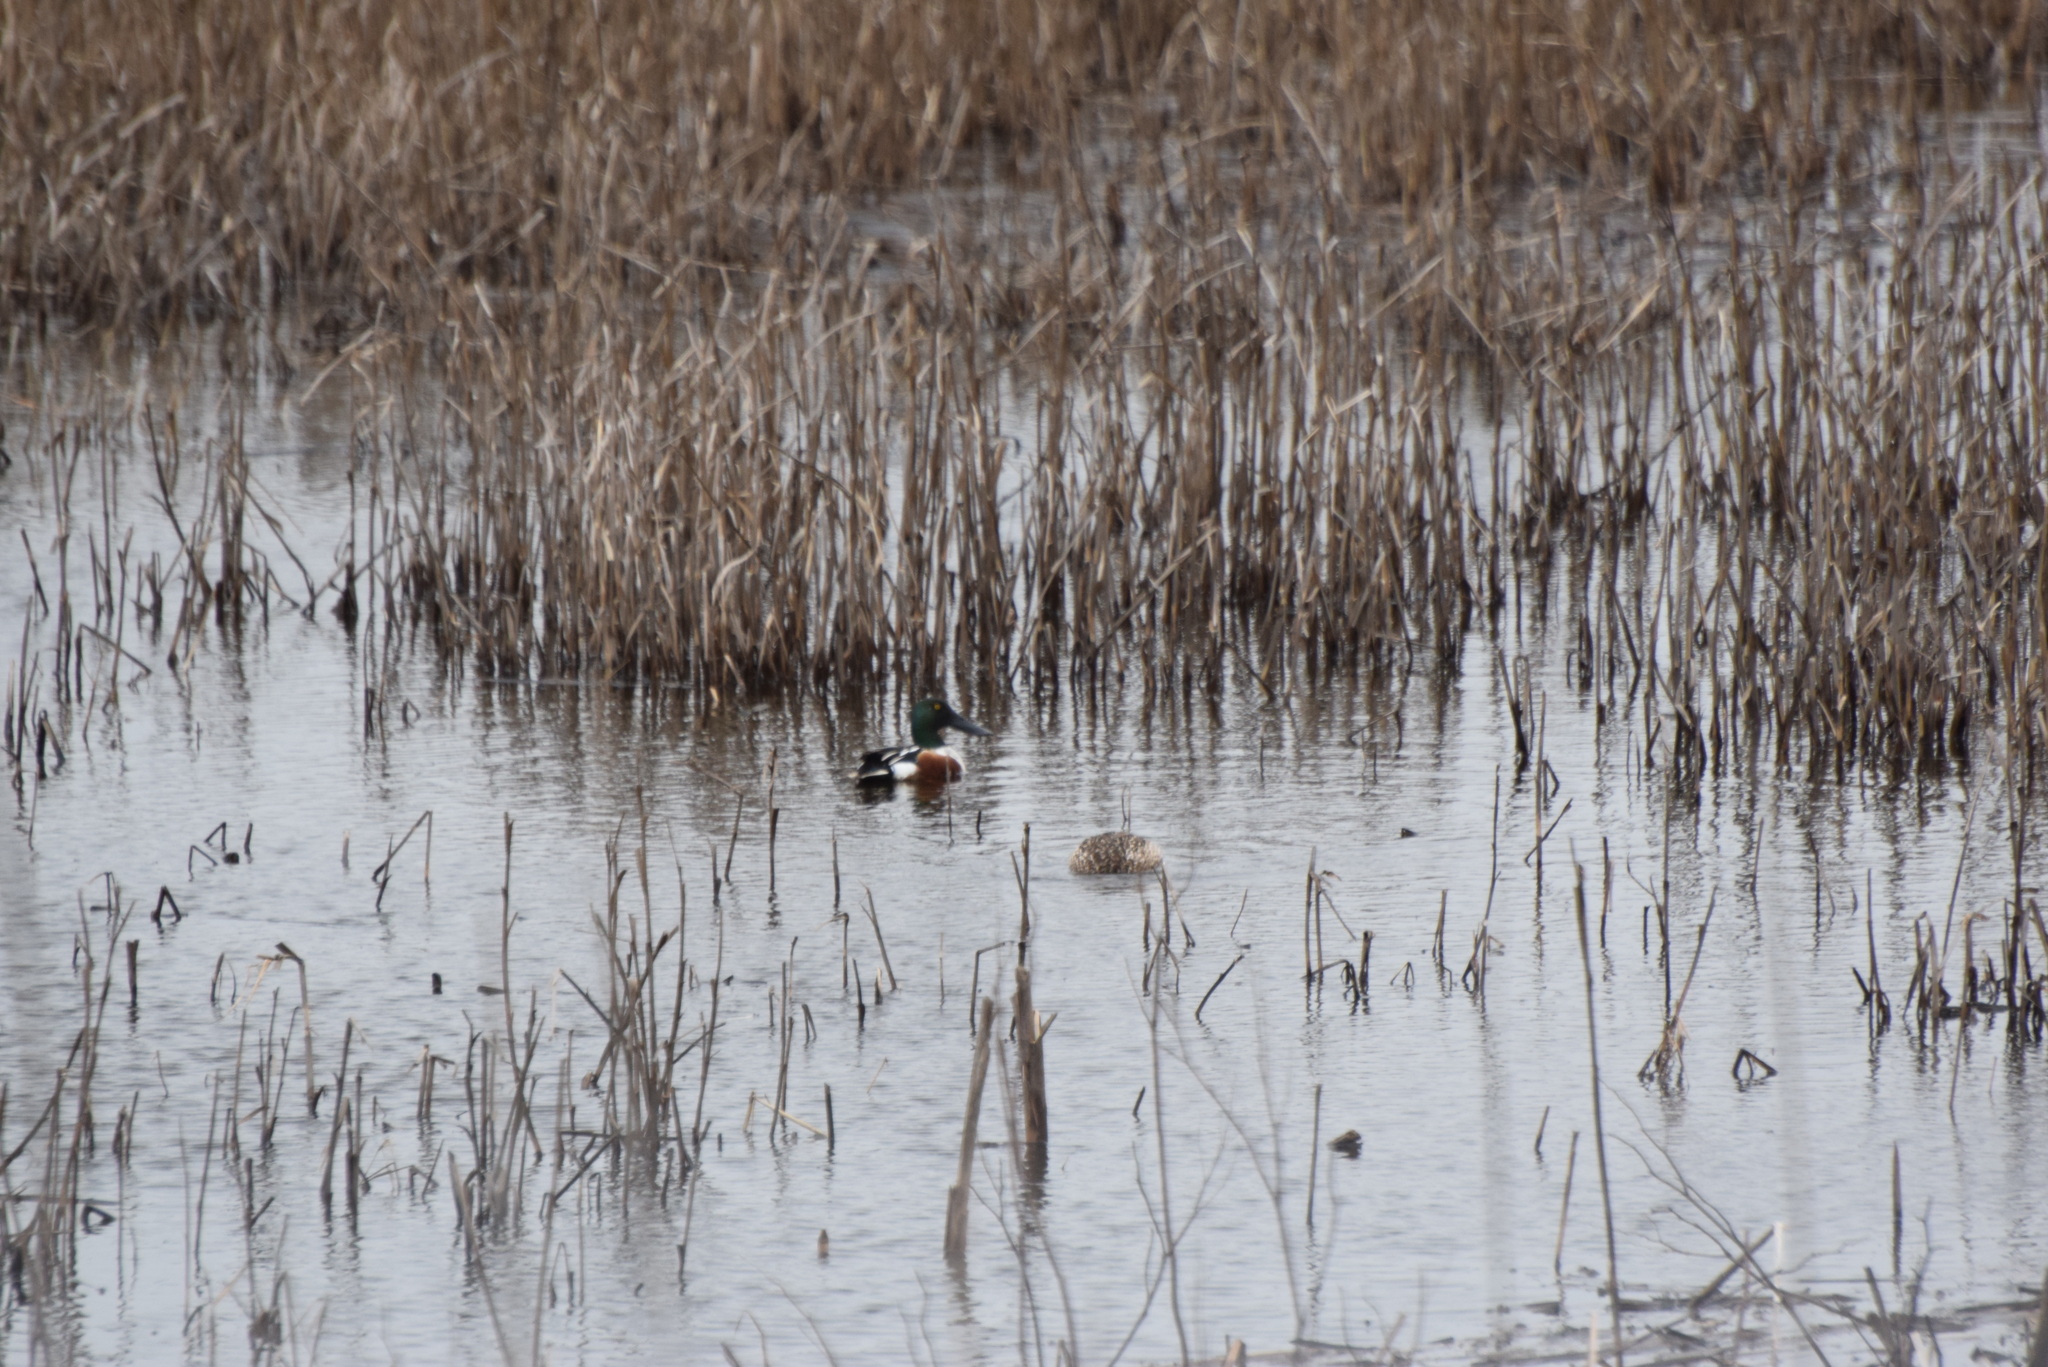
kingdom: Animalia
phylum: Chordata
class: Aves
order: Anseriformes
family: Anatidae
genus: Spatula
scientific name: Spatula clypeata
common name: Northern shoveler
